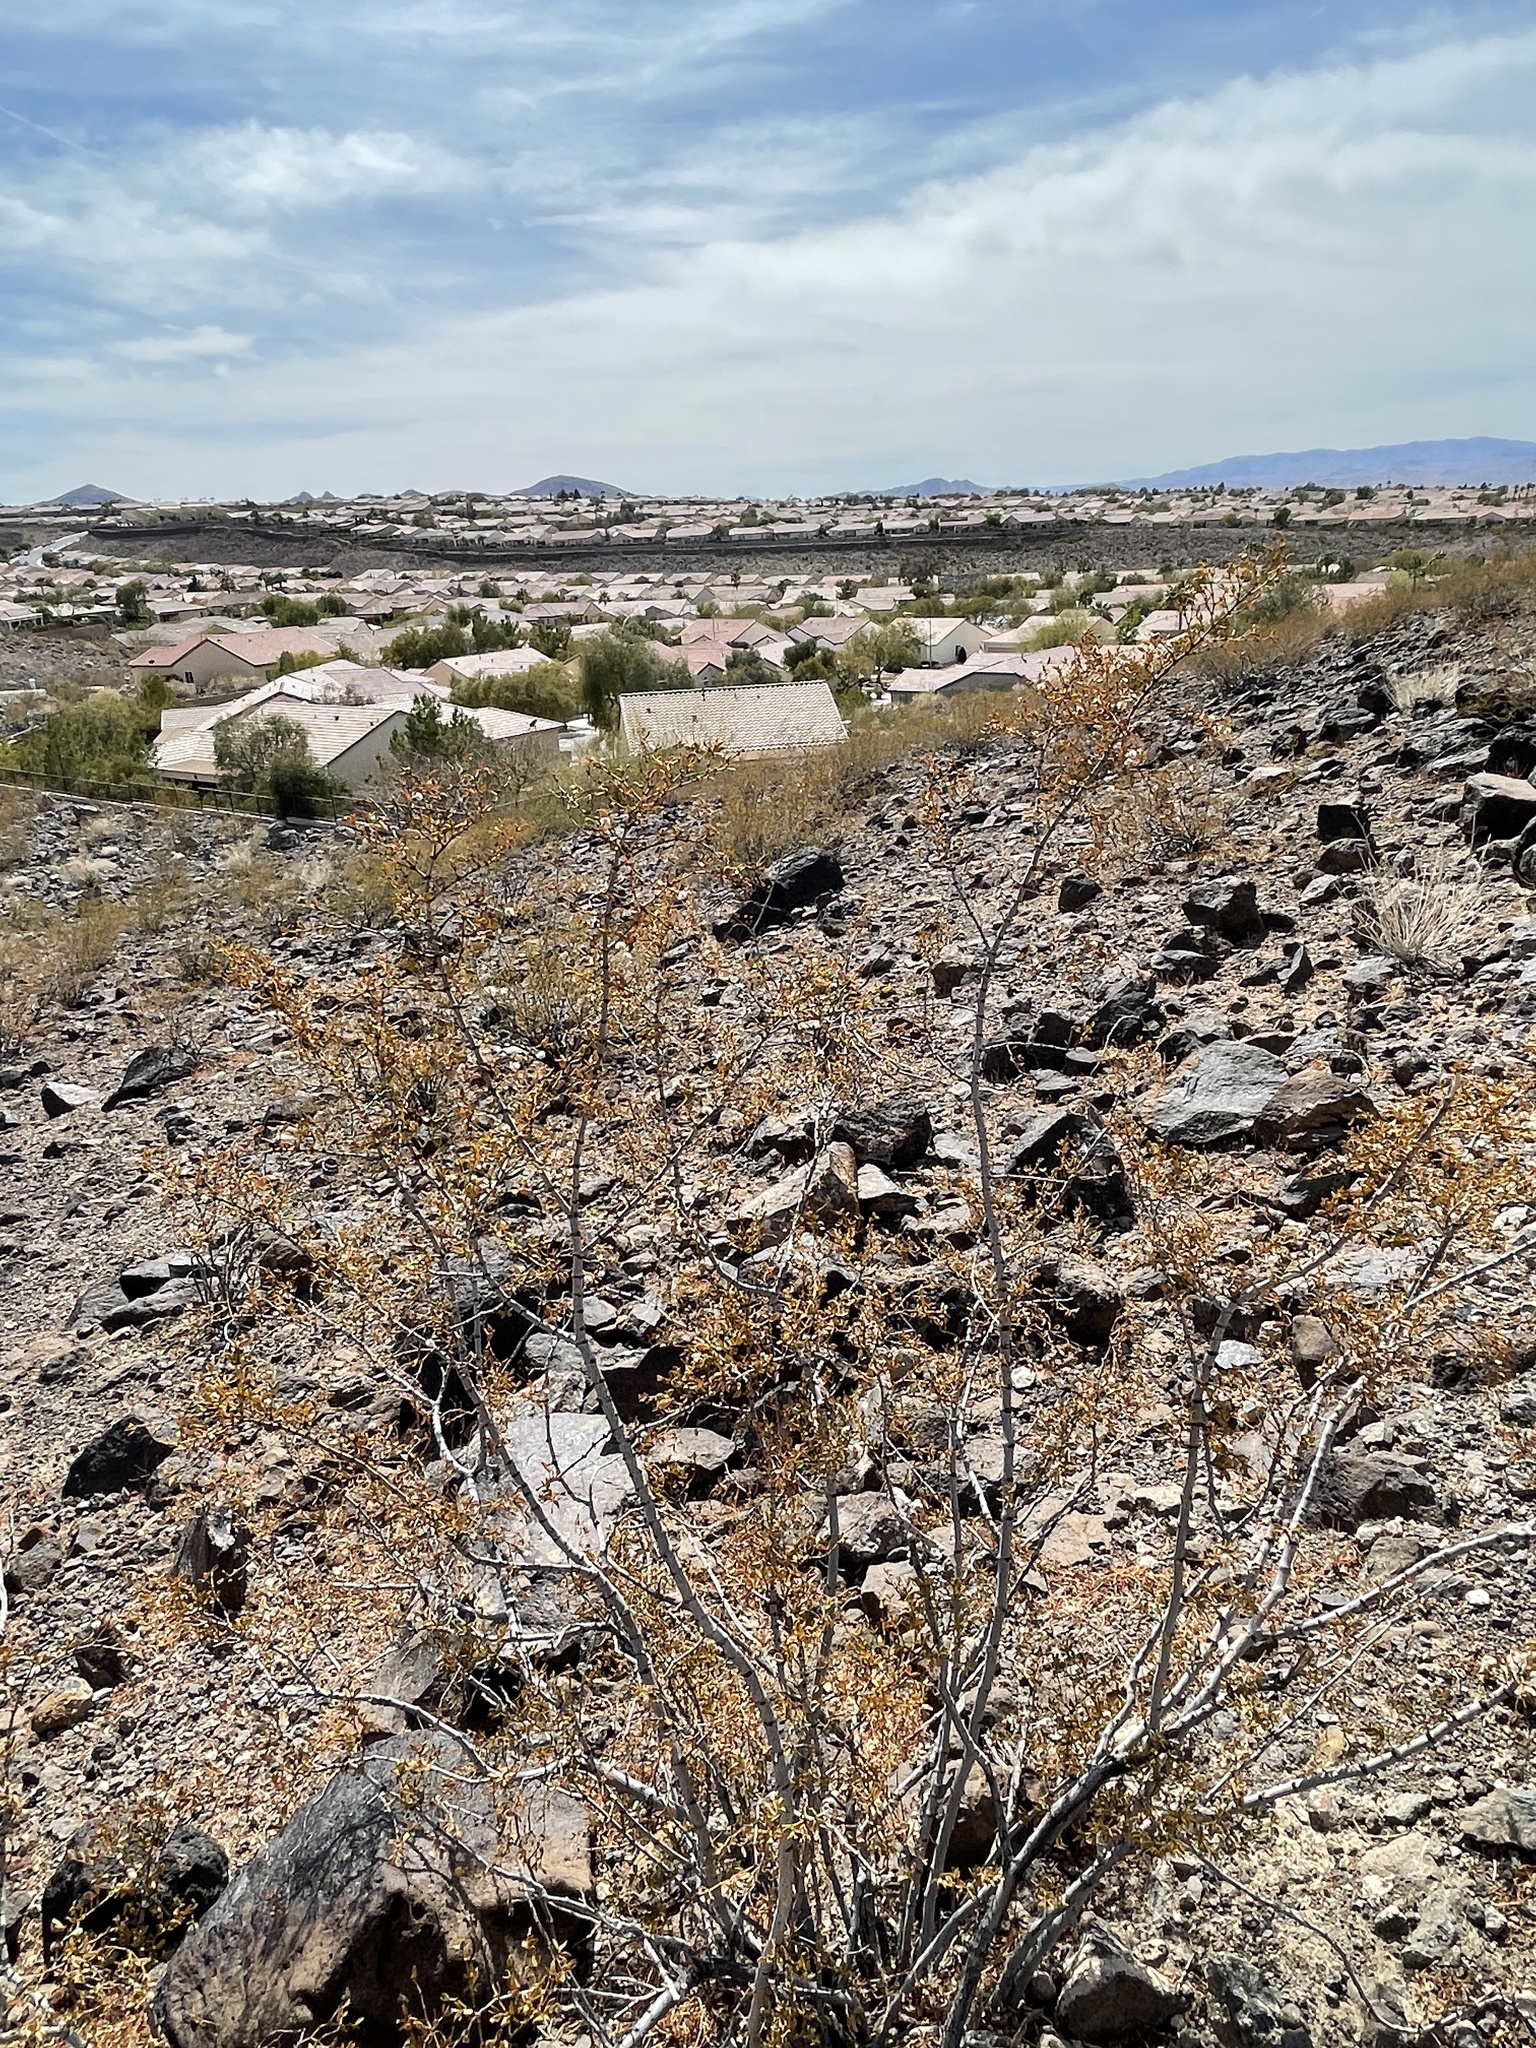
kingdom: Plantae
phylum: Tracheophyta
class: Magnoliopsida
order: Zygophyllales
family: Zygophyllaceae
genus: Larrea
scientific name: Larrea tridentata
